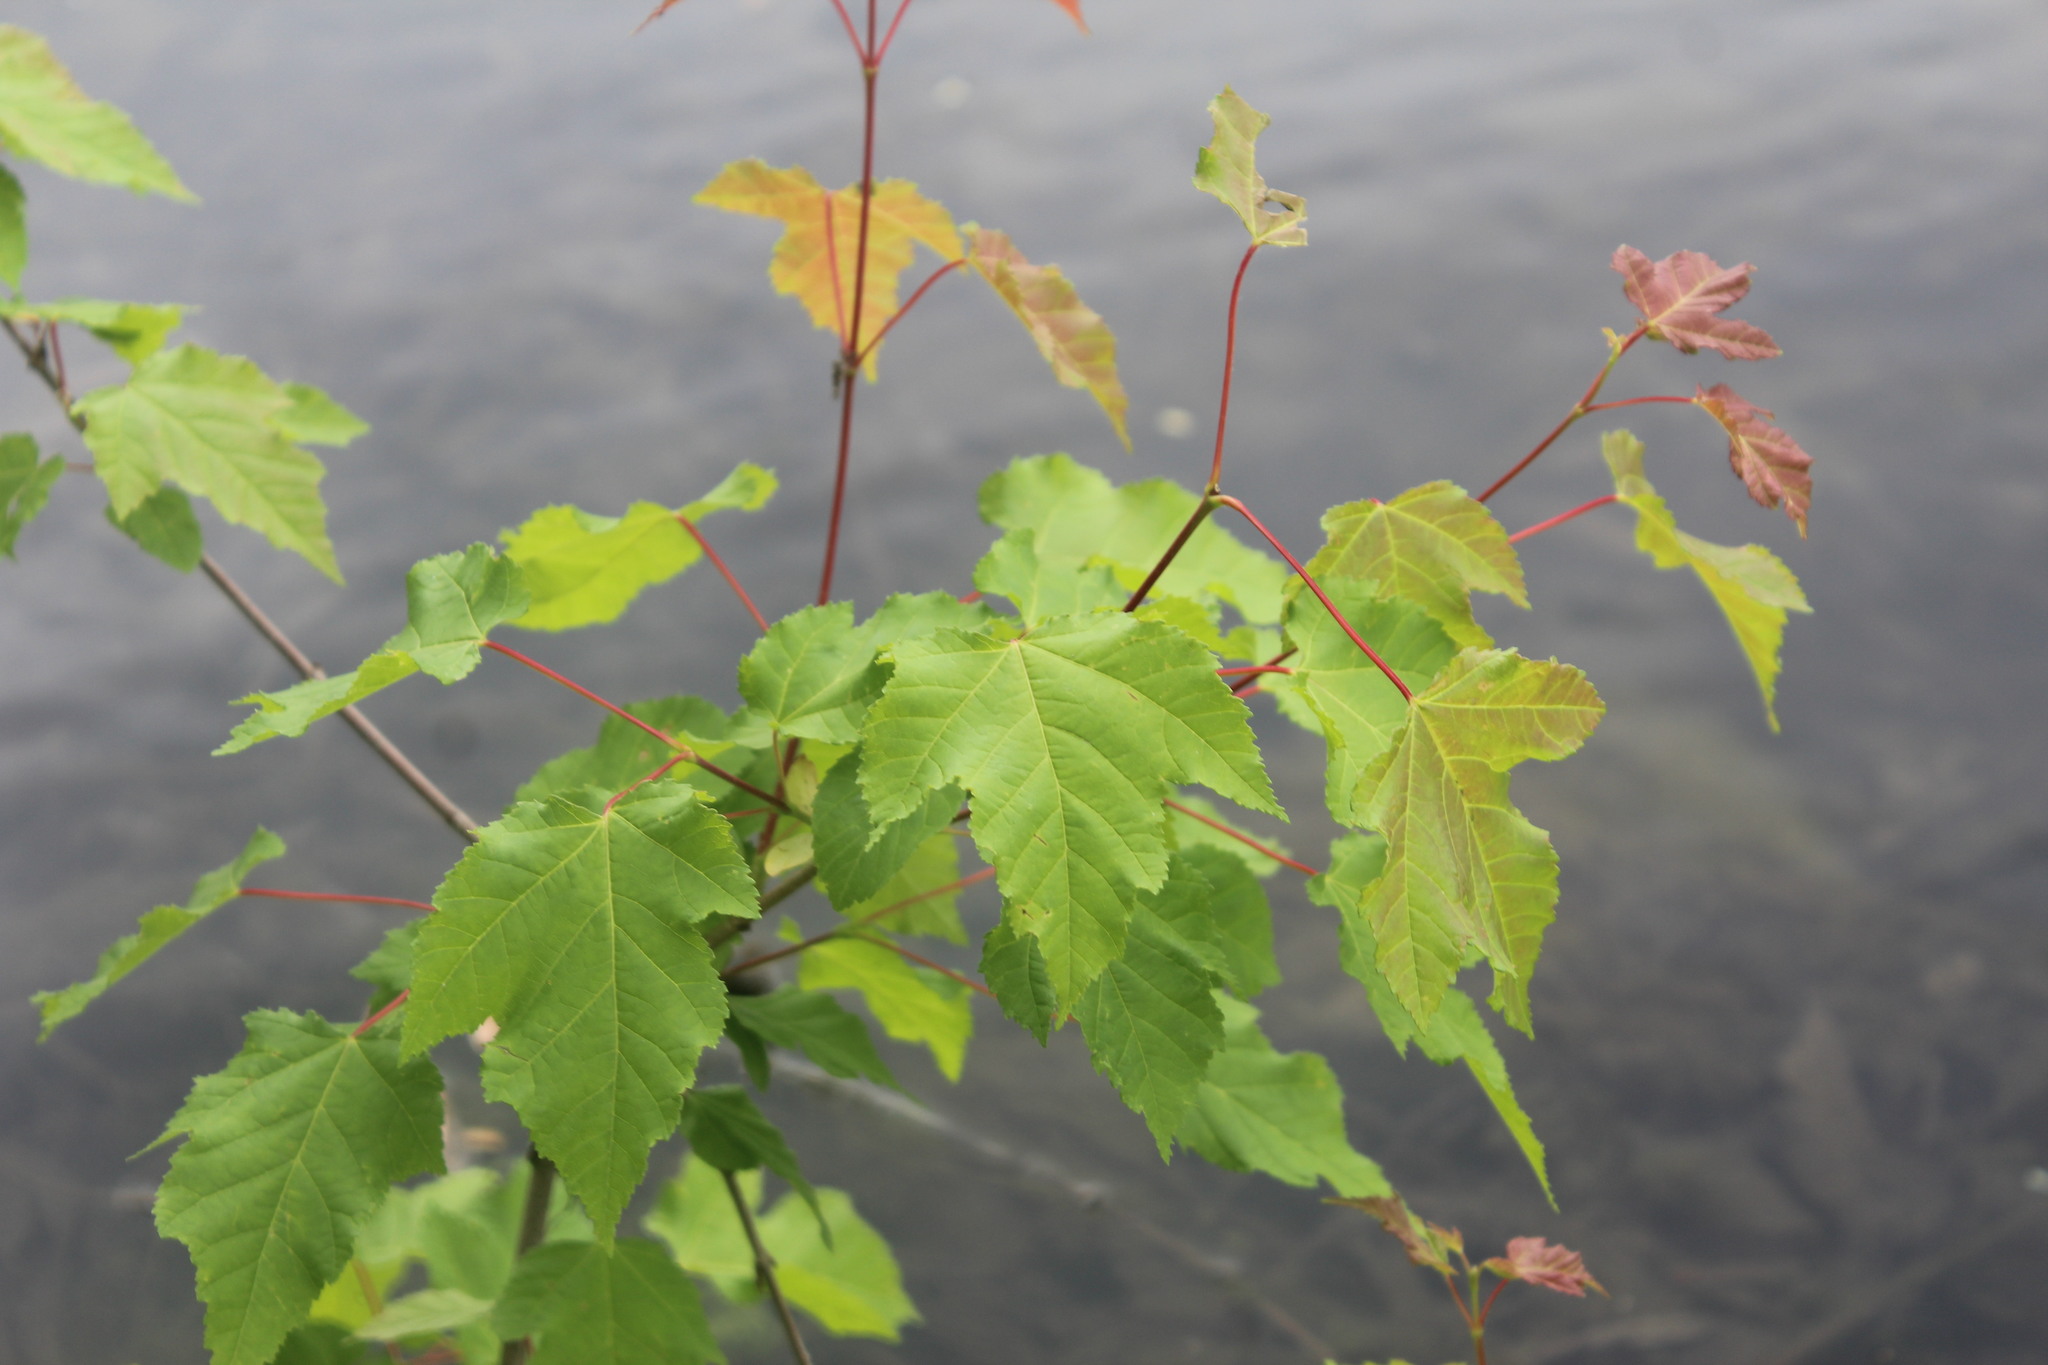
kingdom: Plantae
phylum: Tracheophyta
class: Magnoliopsida
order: Sapindales
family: Sapindaceae
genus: Acer
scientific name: Acer rubrum
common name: Red maple
